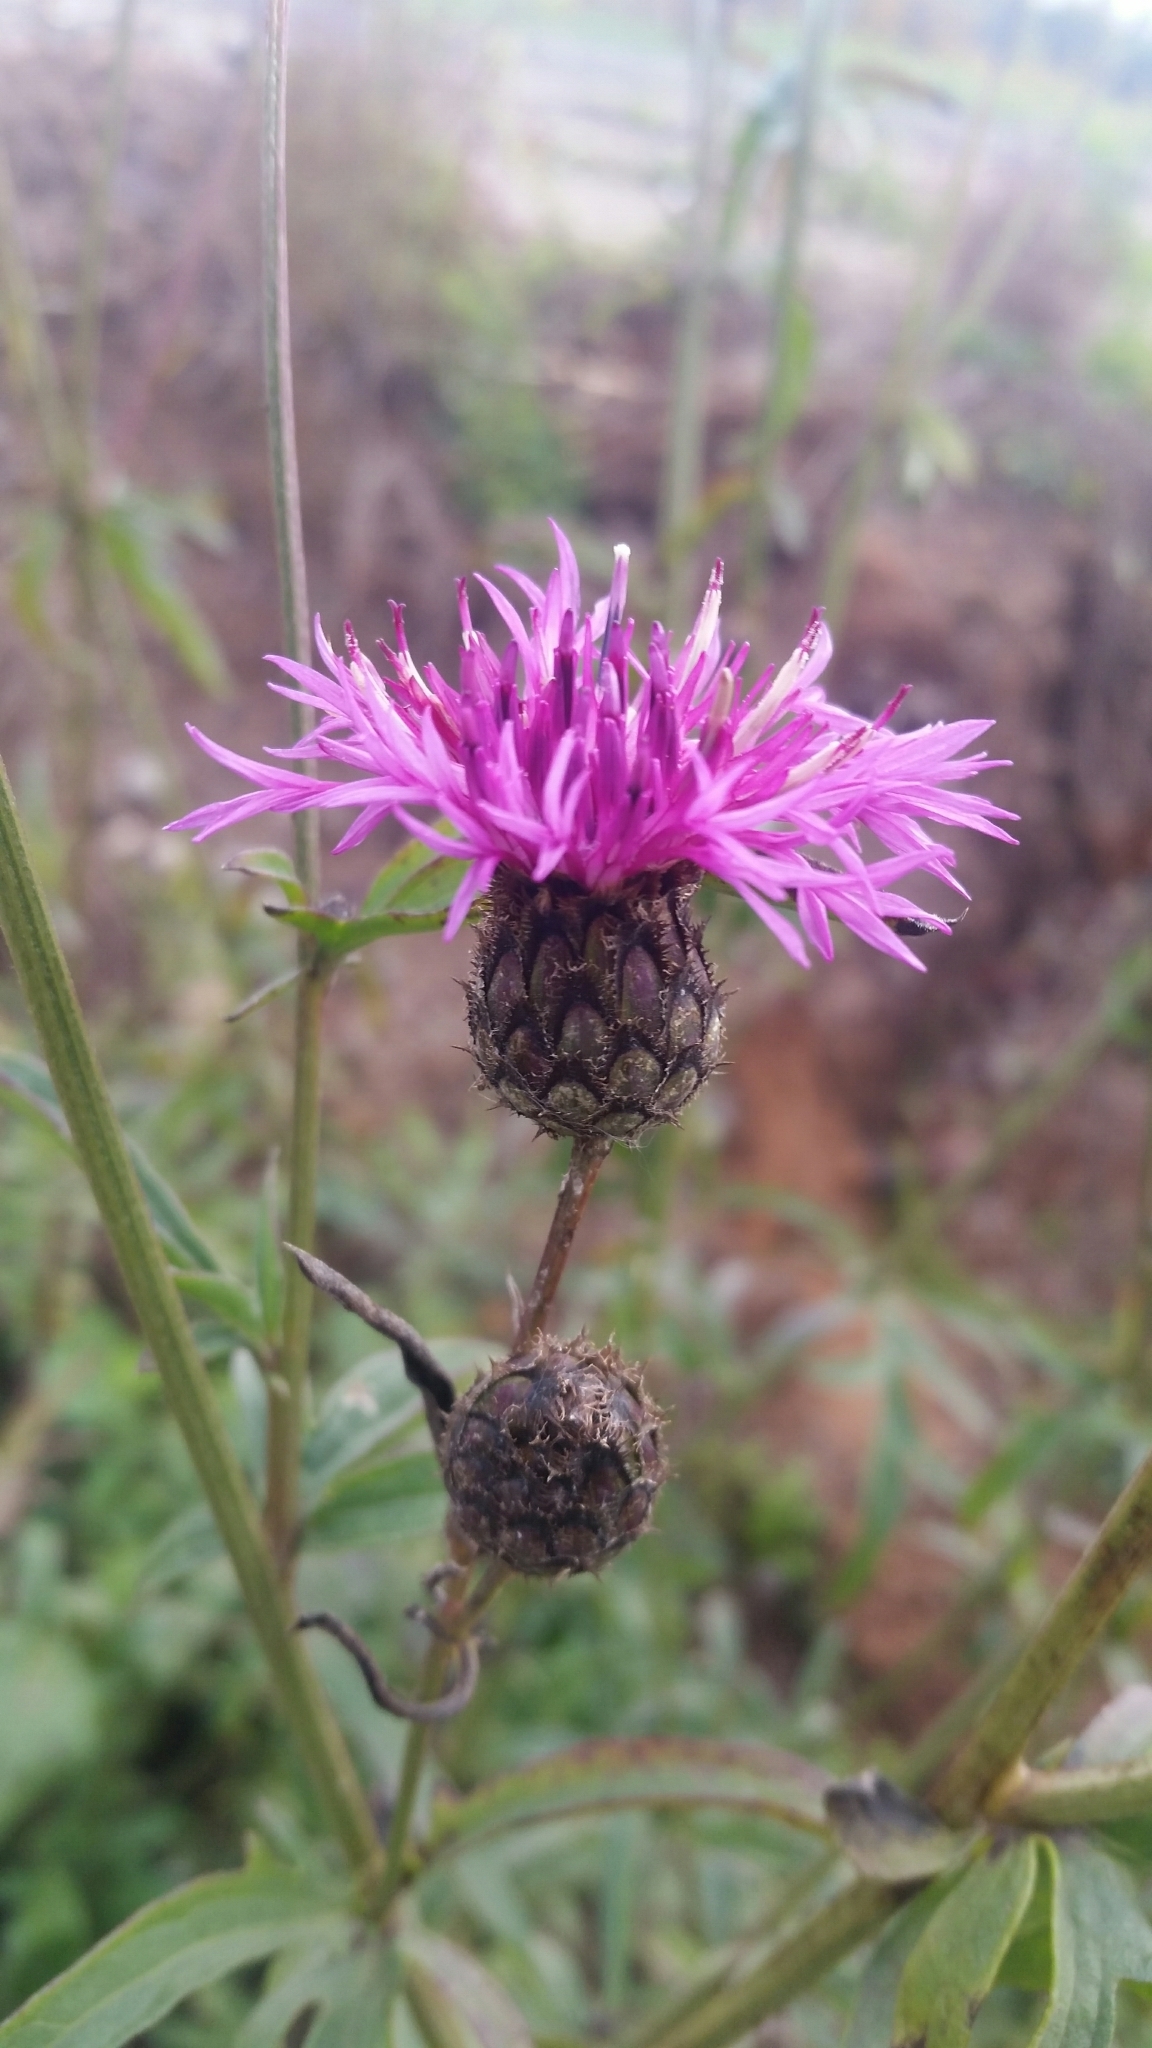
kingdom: Plantae
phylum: Tracheophyta
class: Magnoliopsida
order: Asterales
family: Asteraceae
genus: Centaurea
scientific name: Centaurea scabiosa
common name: Greater knapweed
